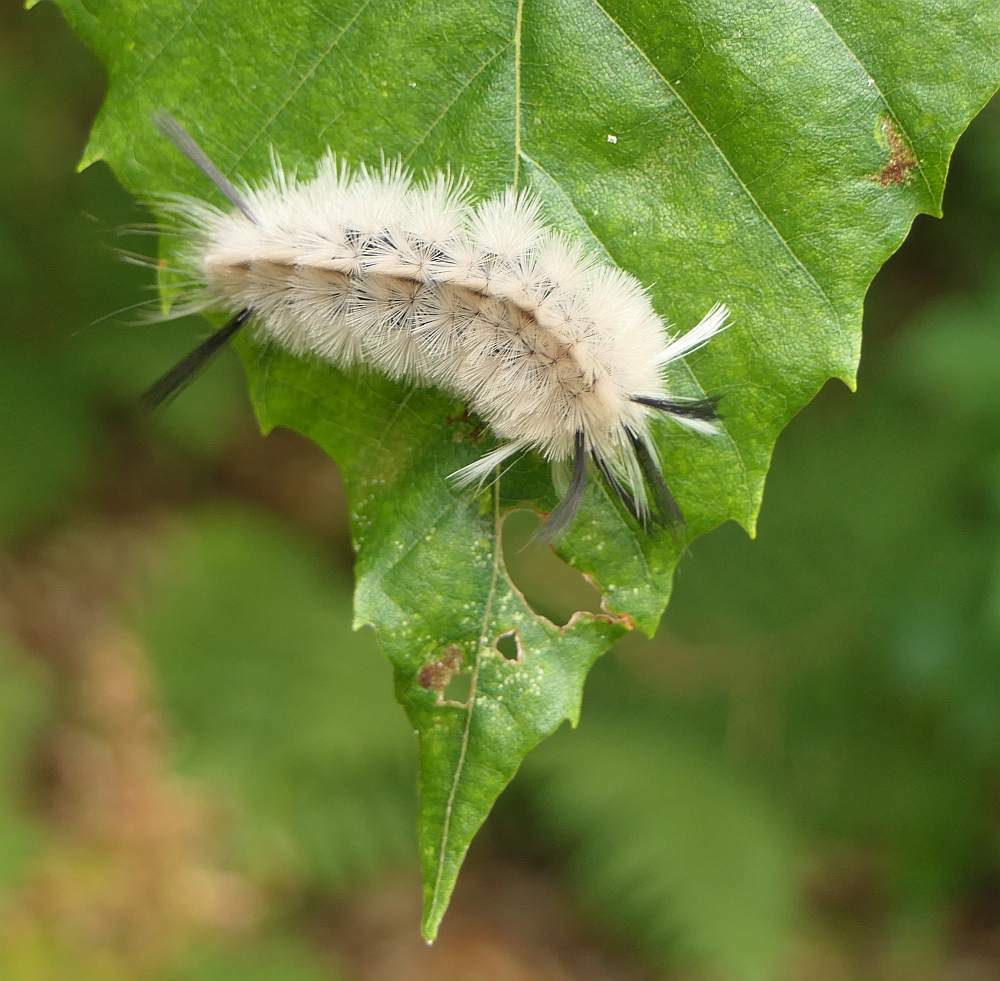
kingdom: Animalia
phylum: Arthropoda
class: Insecta
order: Lepidoptera
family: Erebidae
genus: Halysidota
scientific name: Halysidota tessellaris
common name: Banded tussock moth
